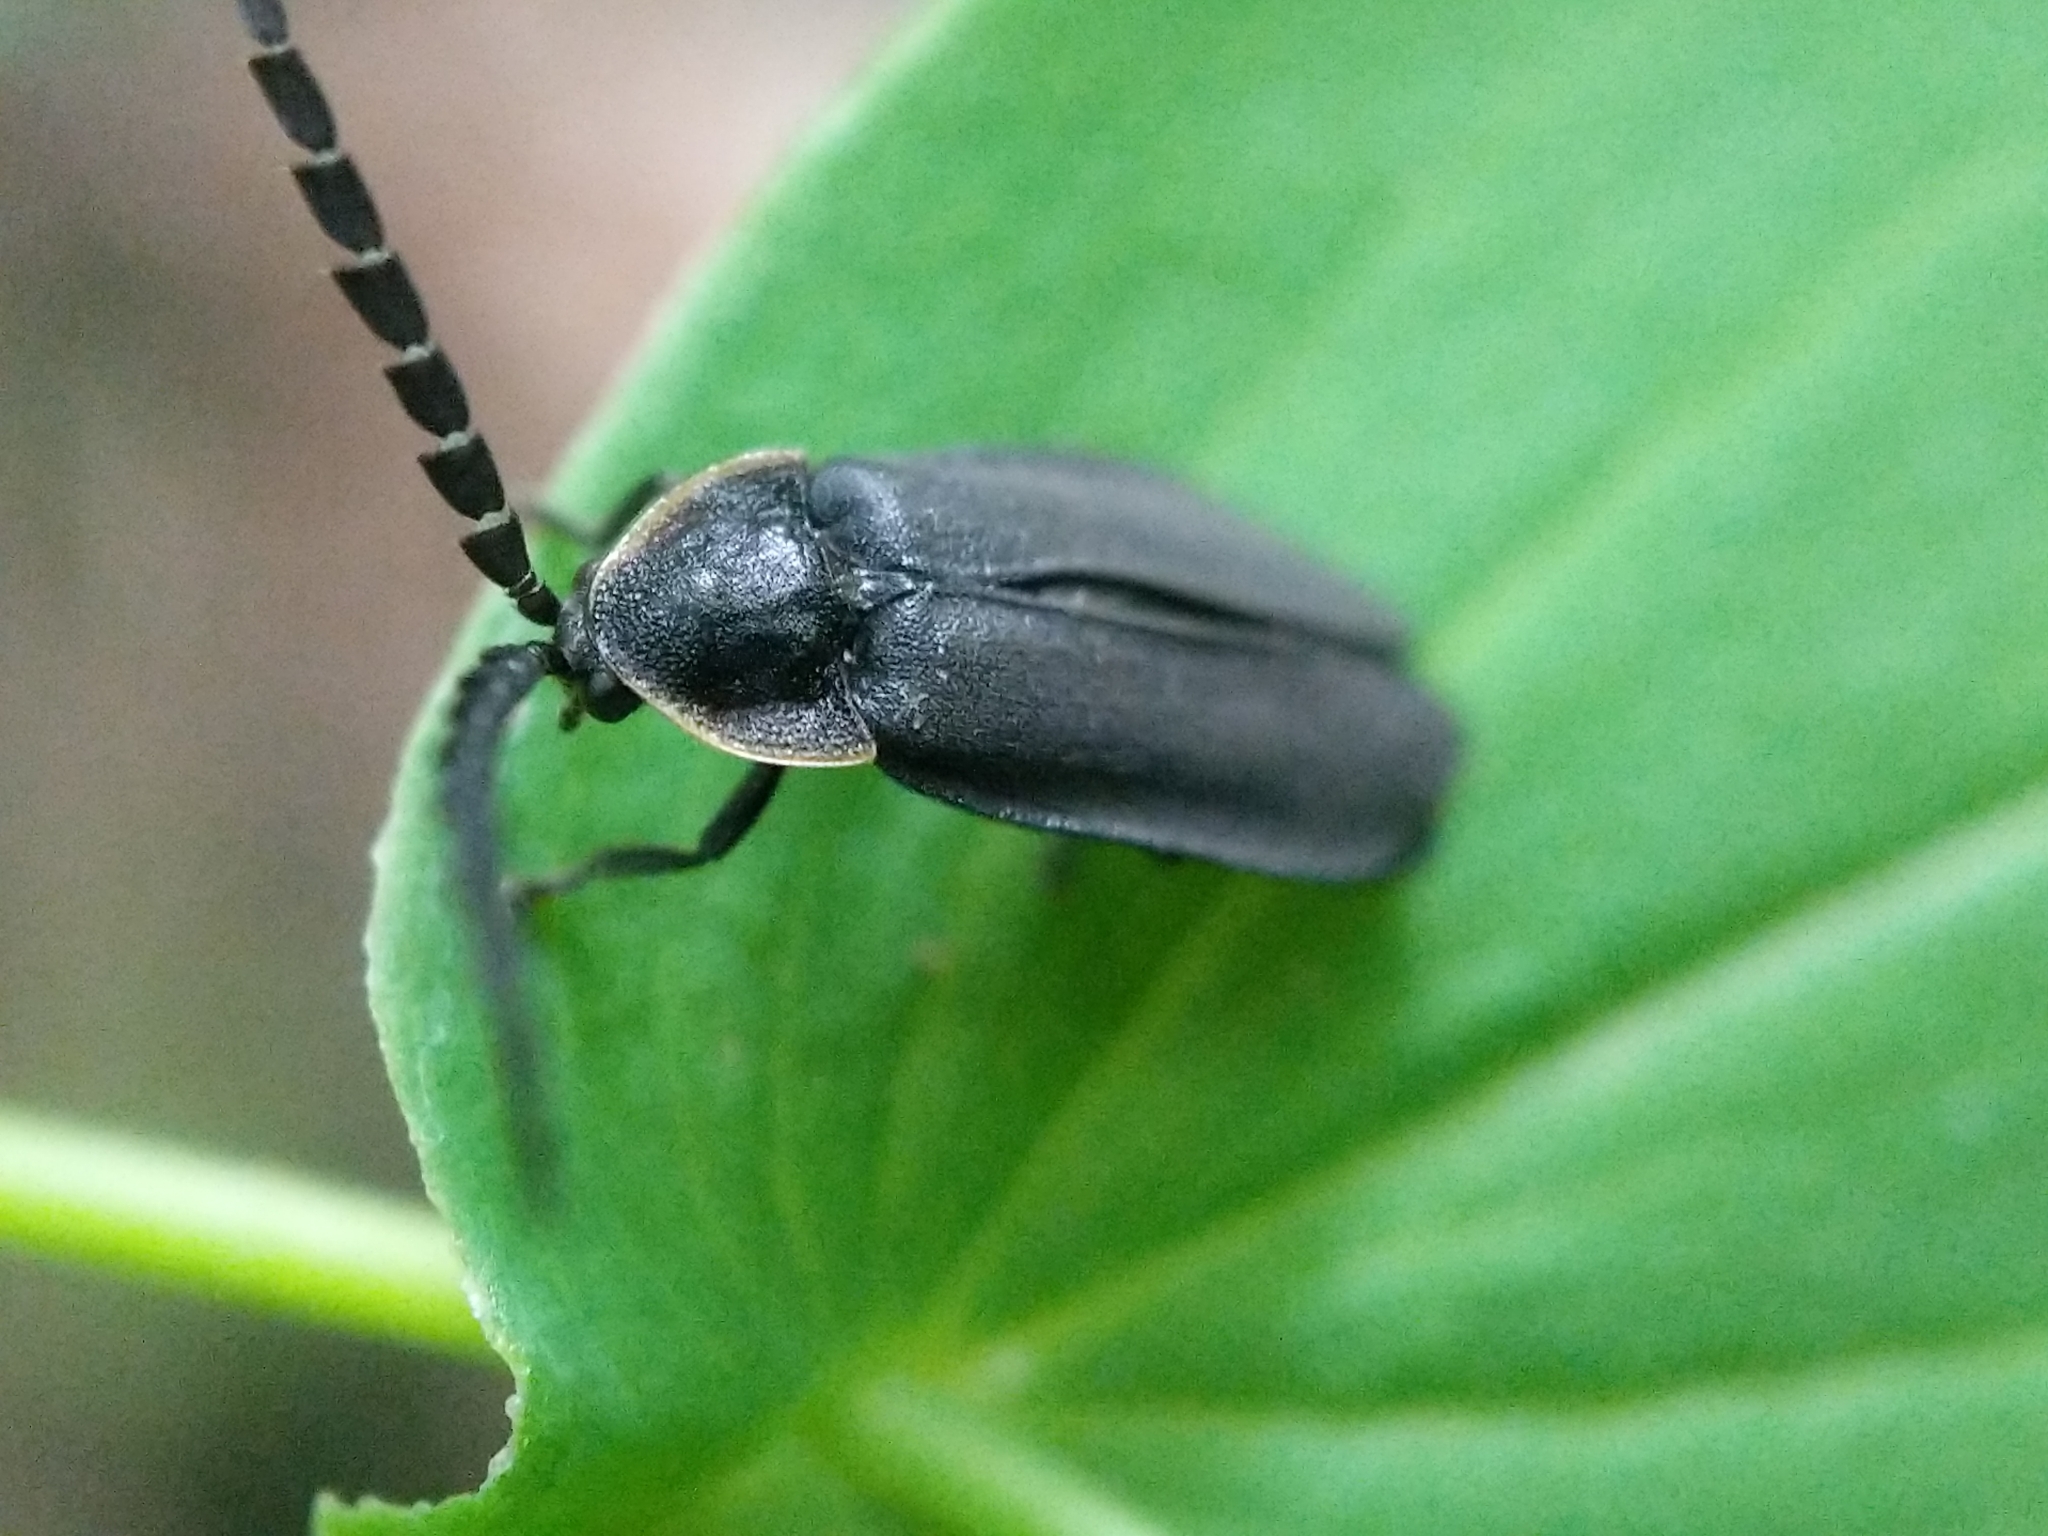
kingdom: Animalia
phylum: Arthropoda
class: Insecta
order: Coleoptera
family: Lampyridae
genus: Lucidota
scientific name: Lucidota atra
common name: Black firefly
